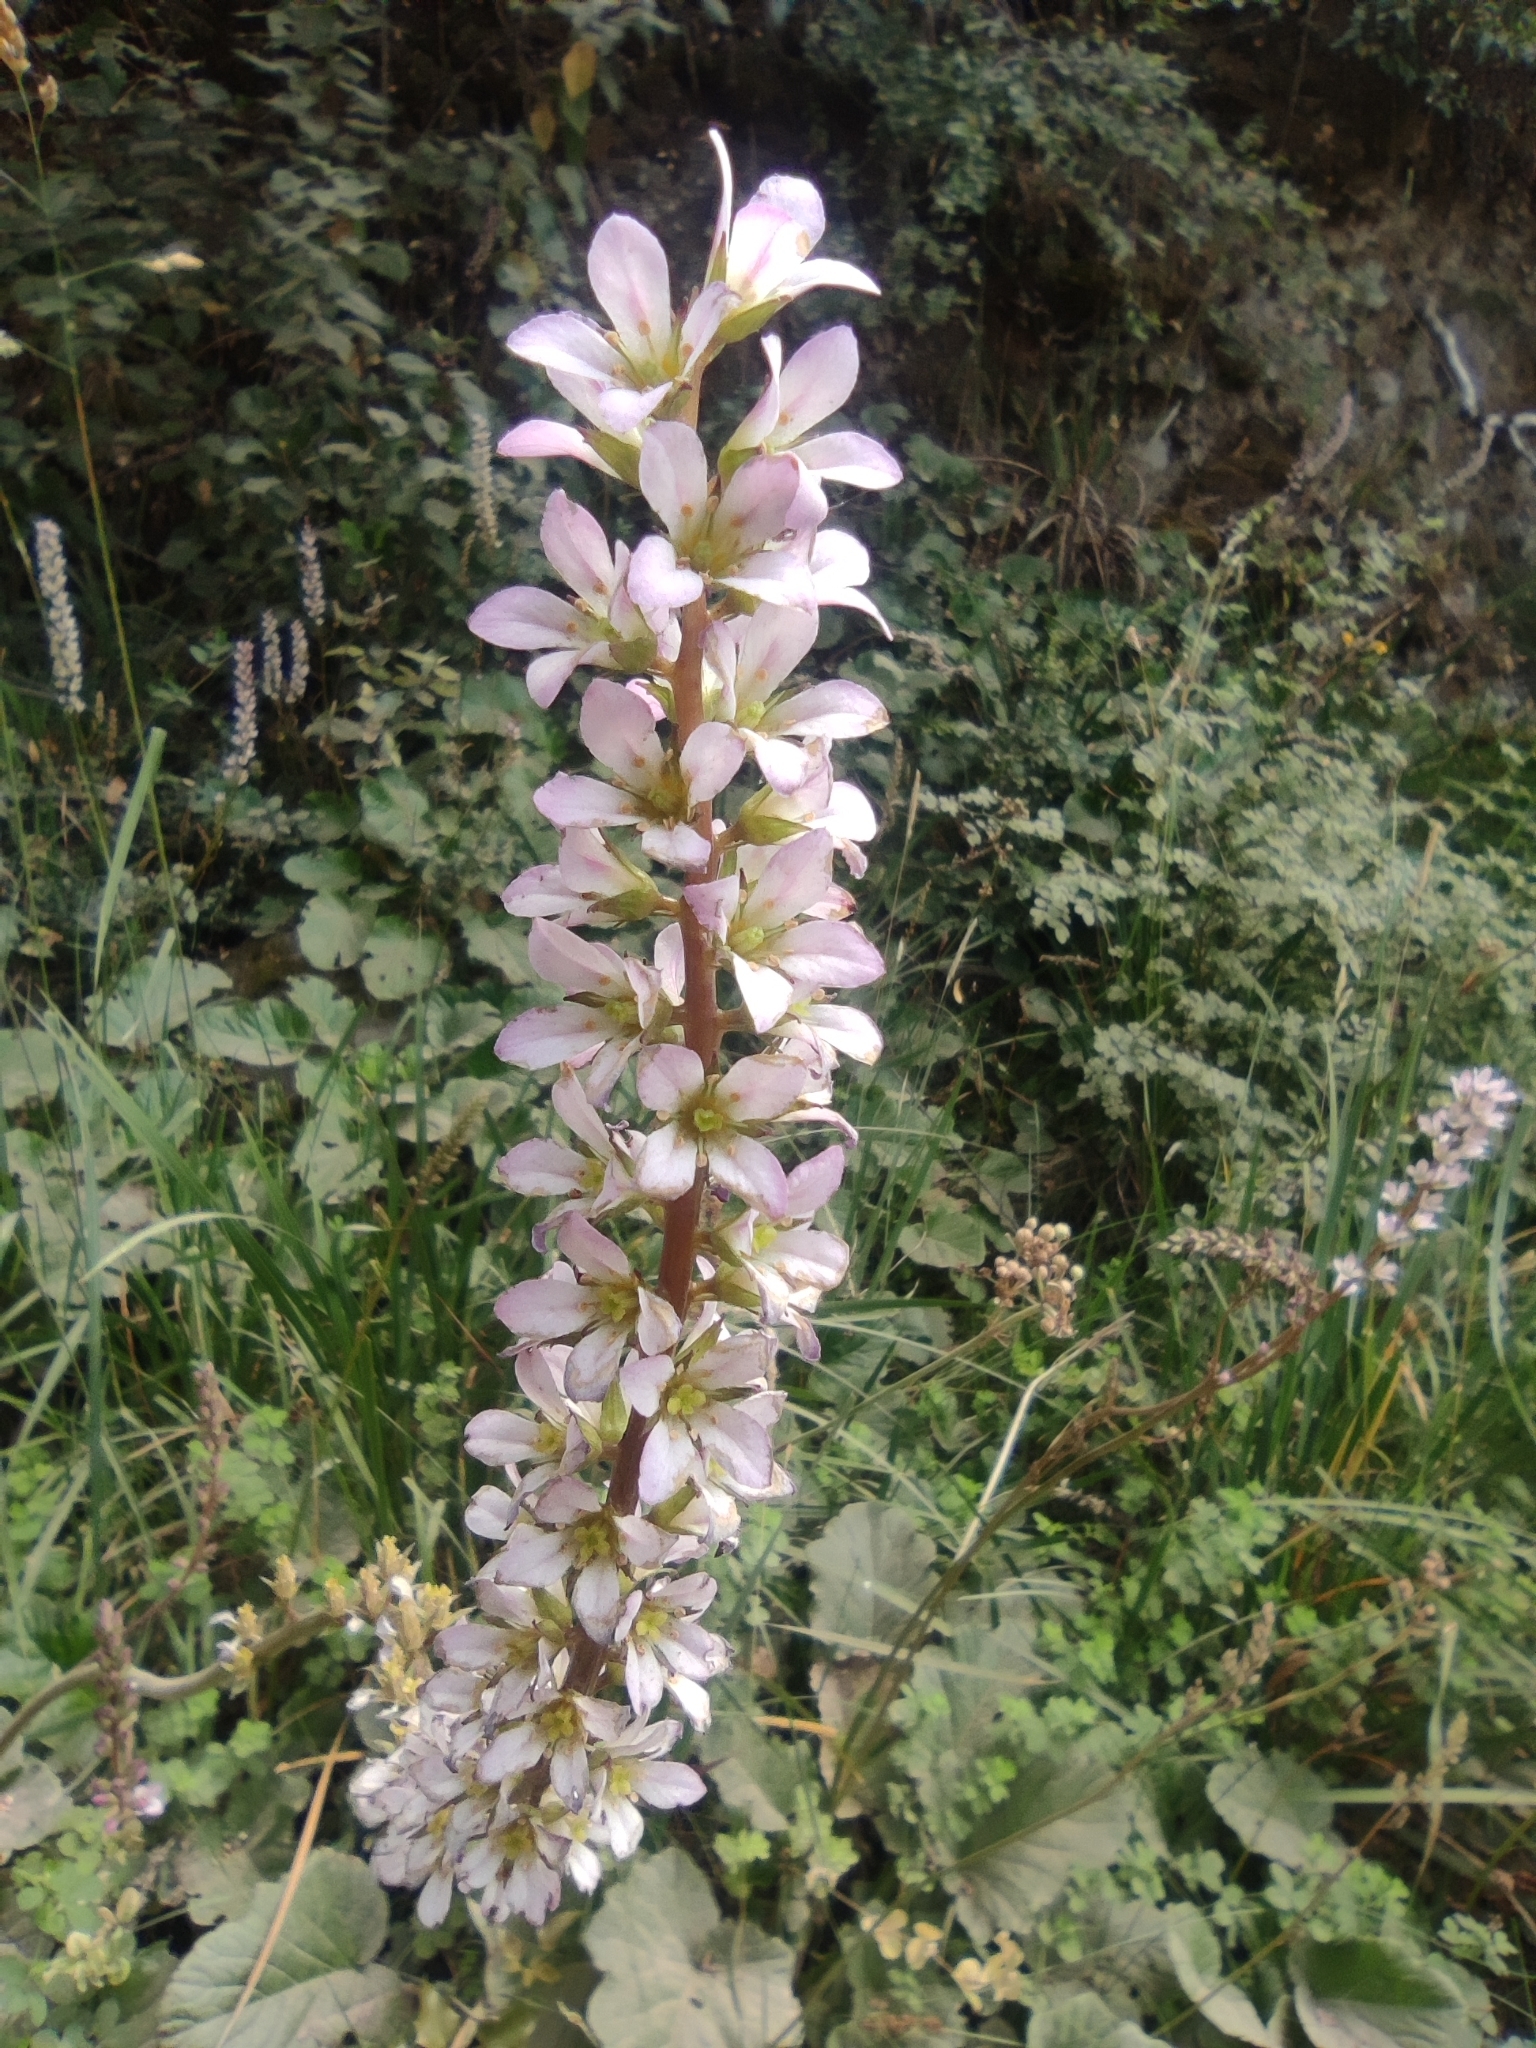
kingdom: Plantae
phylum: Tracheophyta
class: Magnoliopsida
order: Geraniales
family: Francoaceae
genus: Francoa
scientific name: Francoa appendiculata
